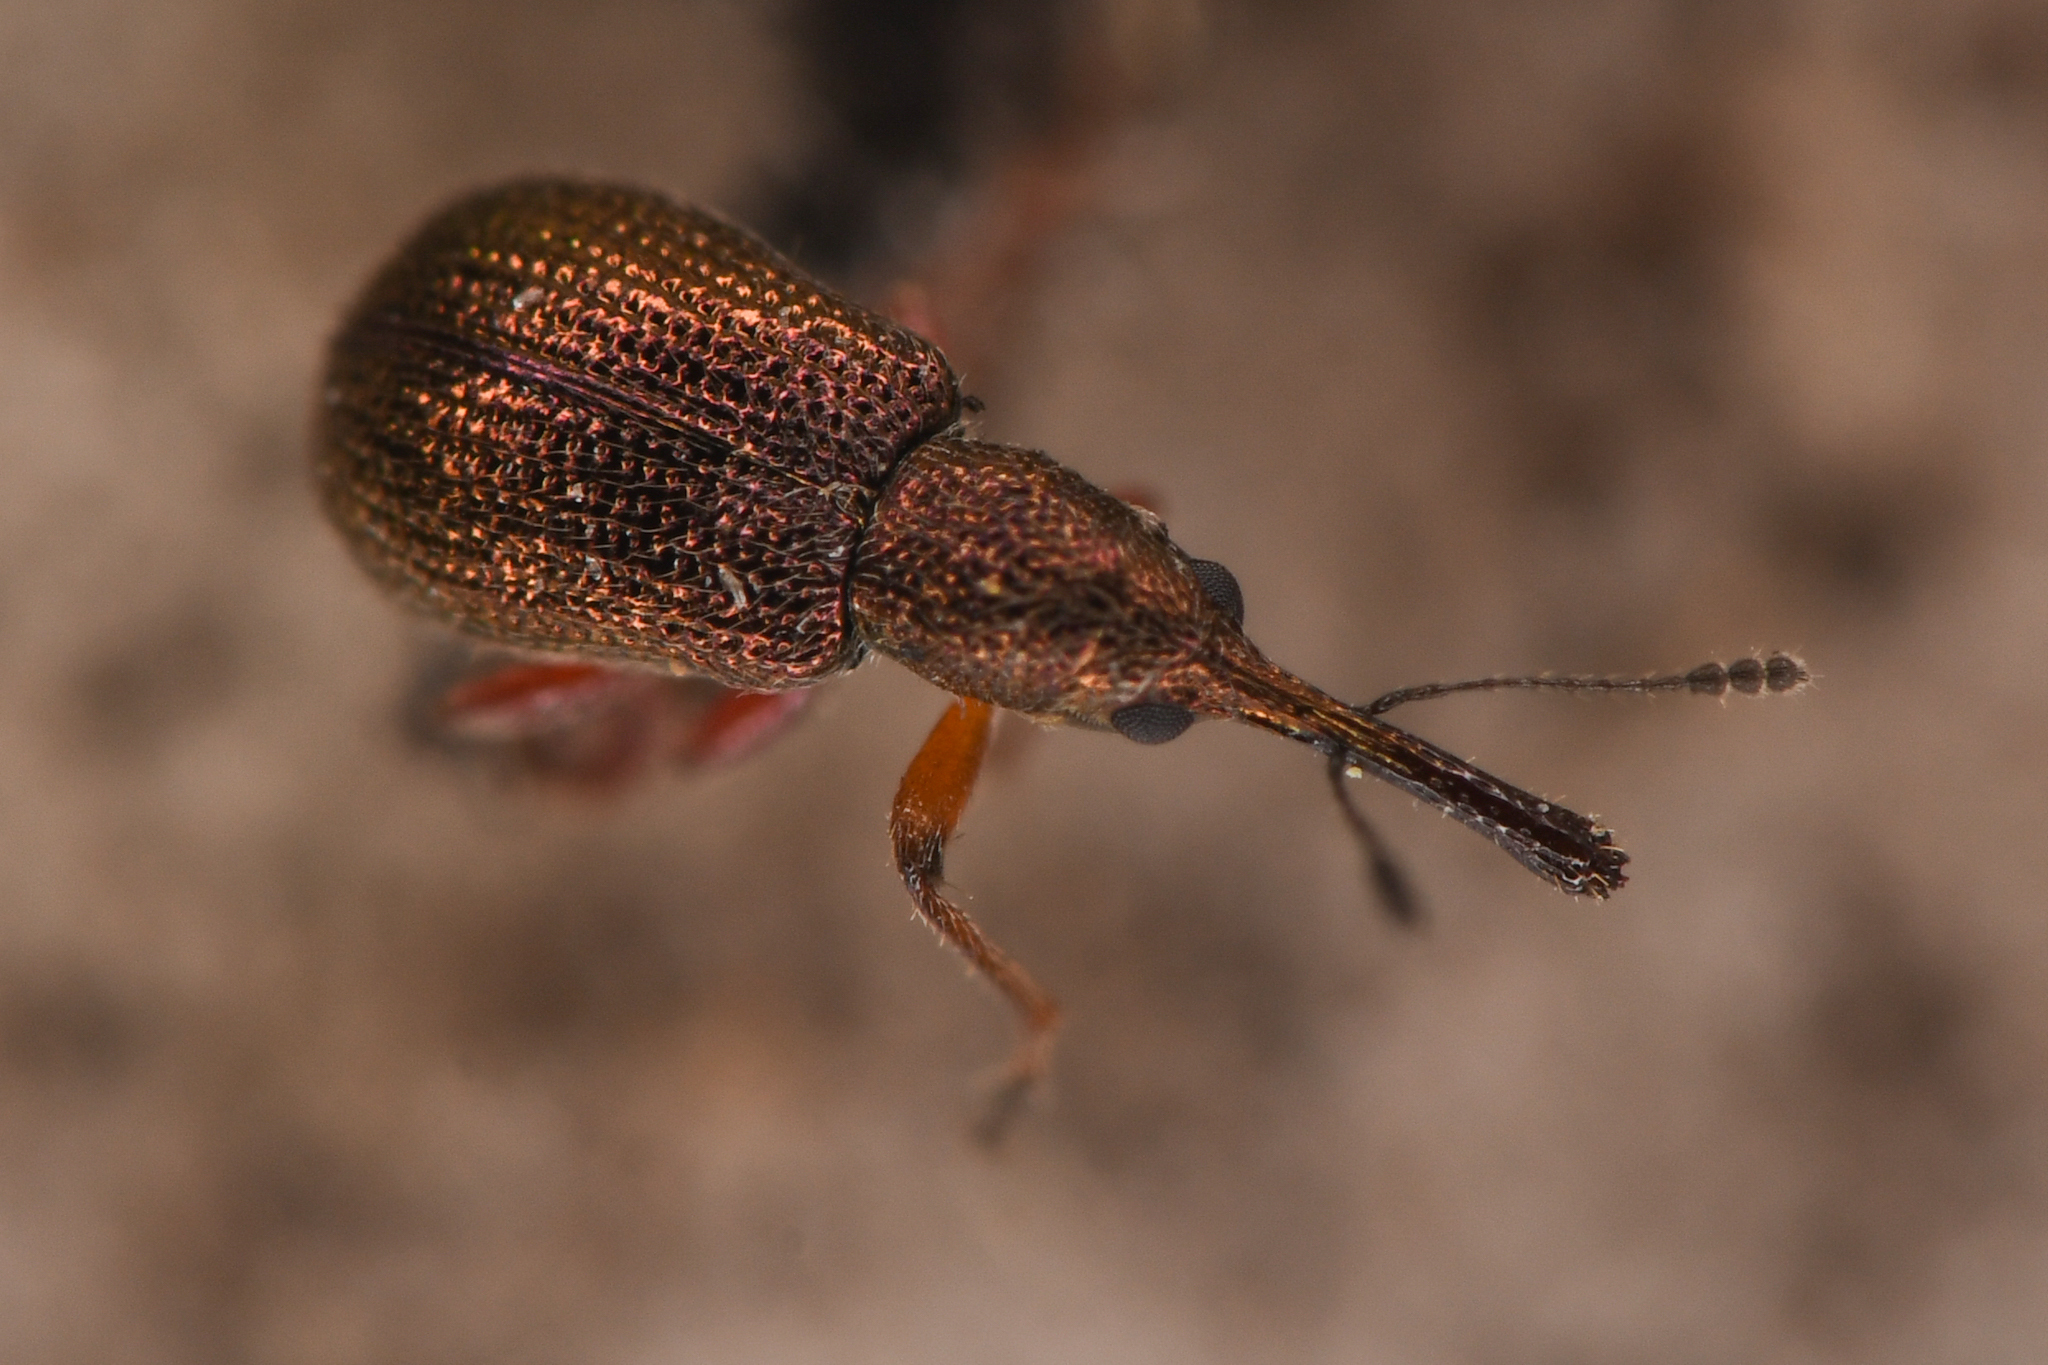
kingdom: Animalia
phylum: Arthropoda
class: Insecta
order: Coleoptera
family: Attelabidae
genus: Temnocerus
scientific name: Temnocerus aureus
